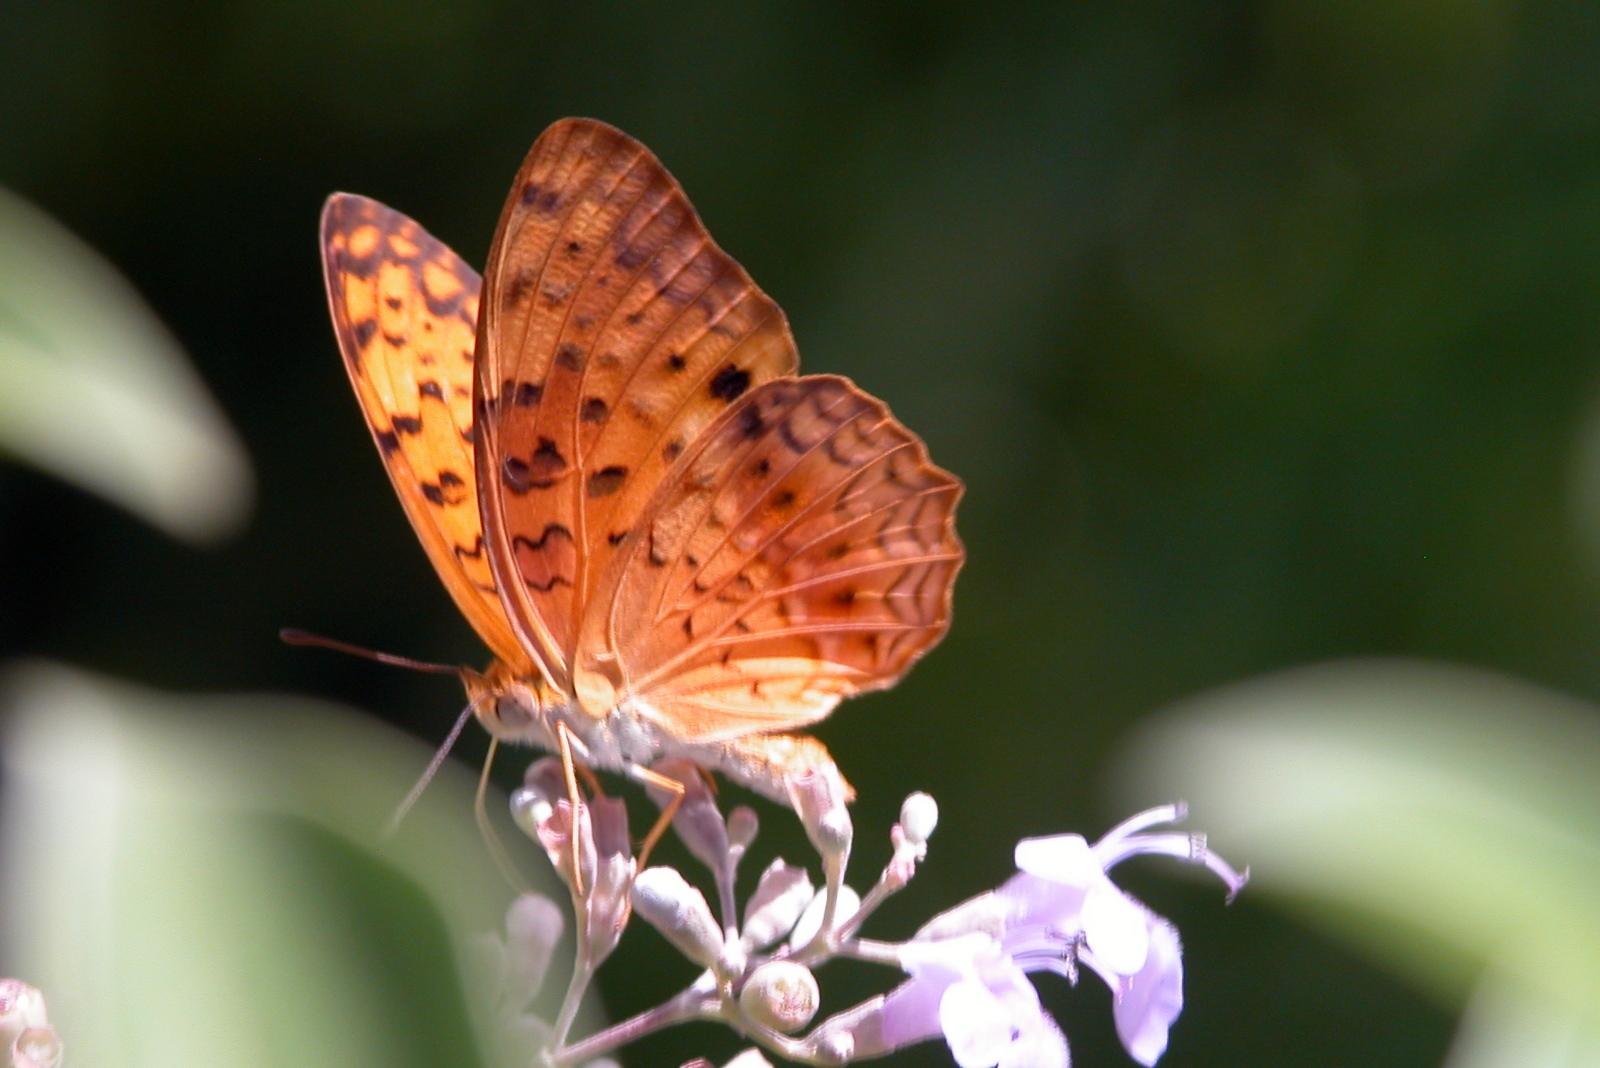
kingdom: Animalia
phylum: Arthropoda
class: Insecta
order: Lepidoptera
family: Nymphalidae
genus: Phalanta
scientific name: Phalanta phalantha
